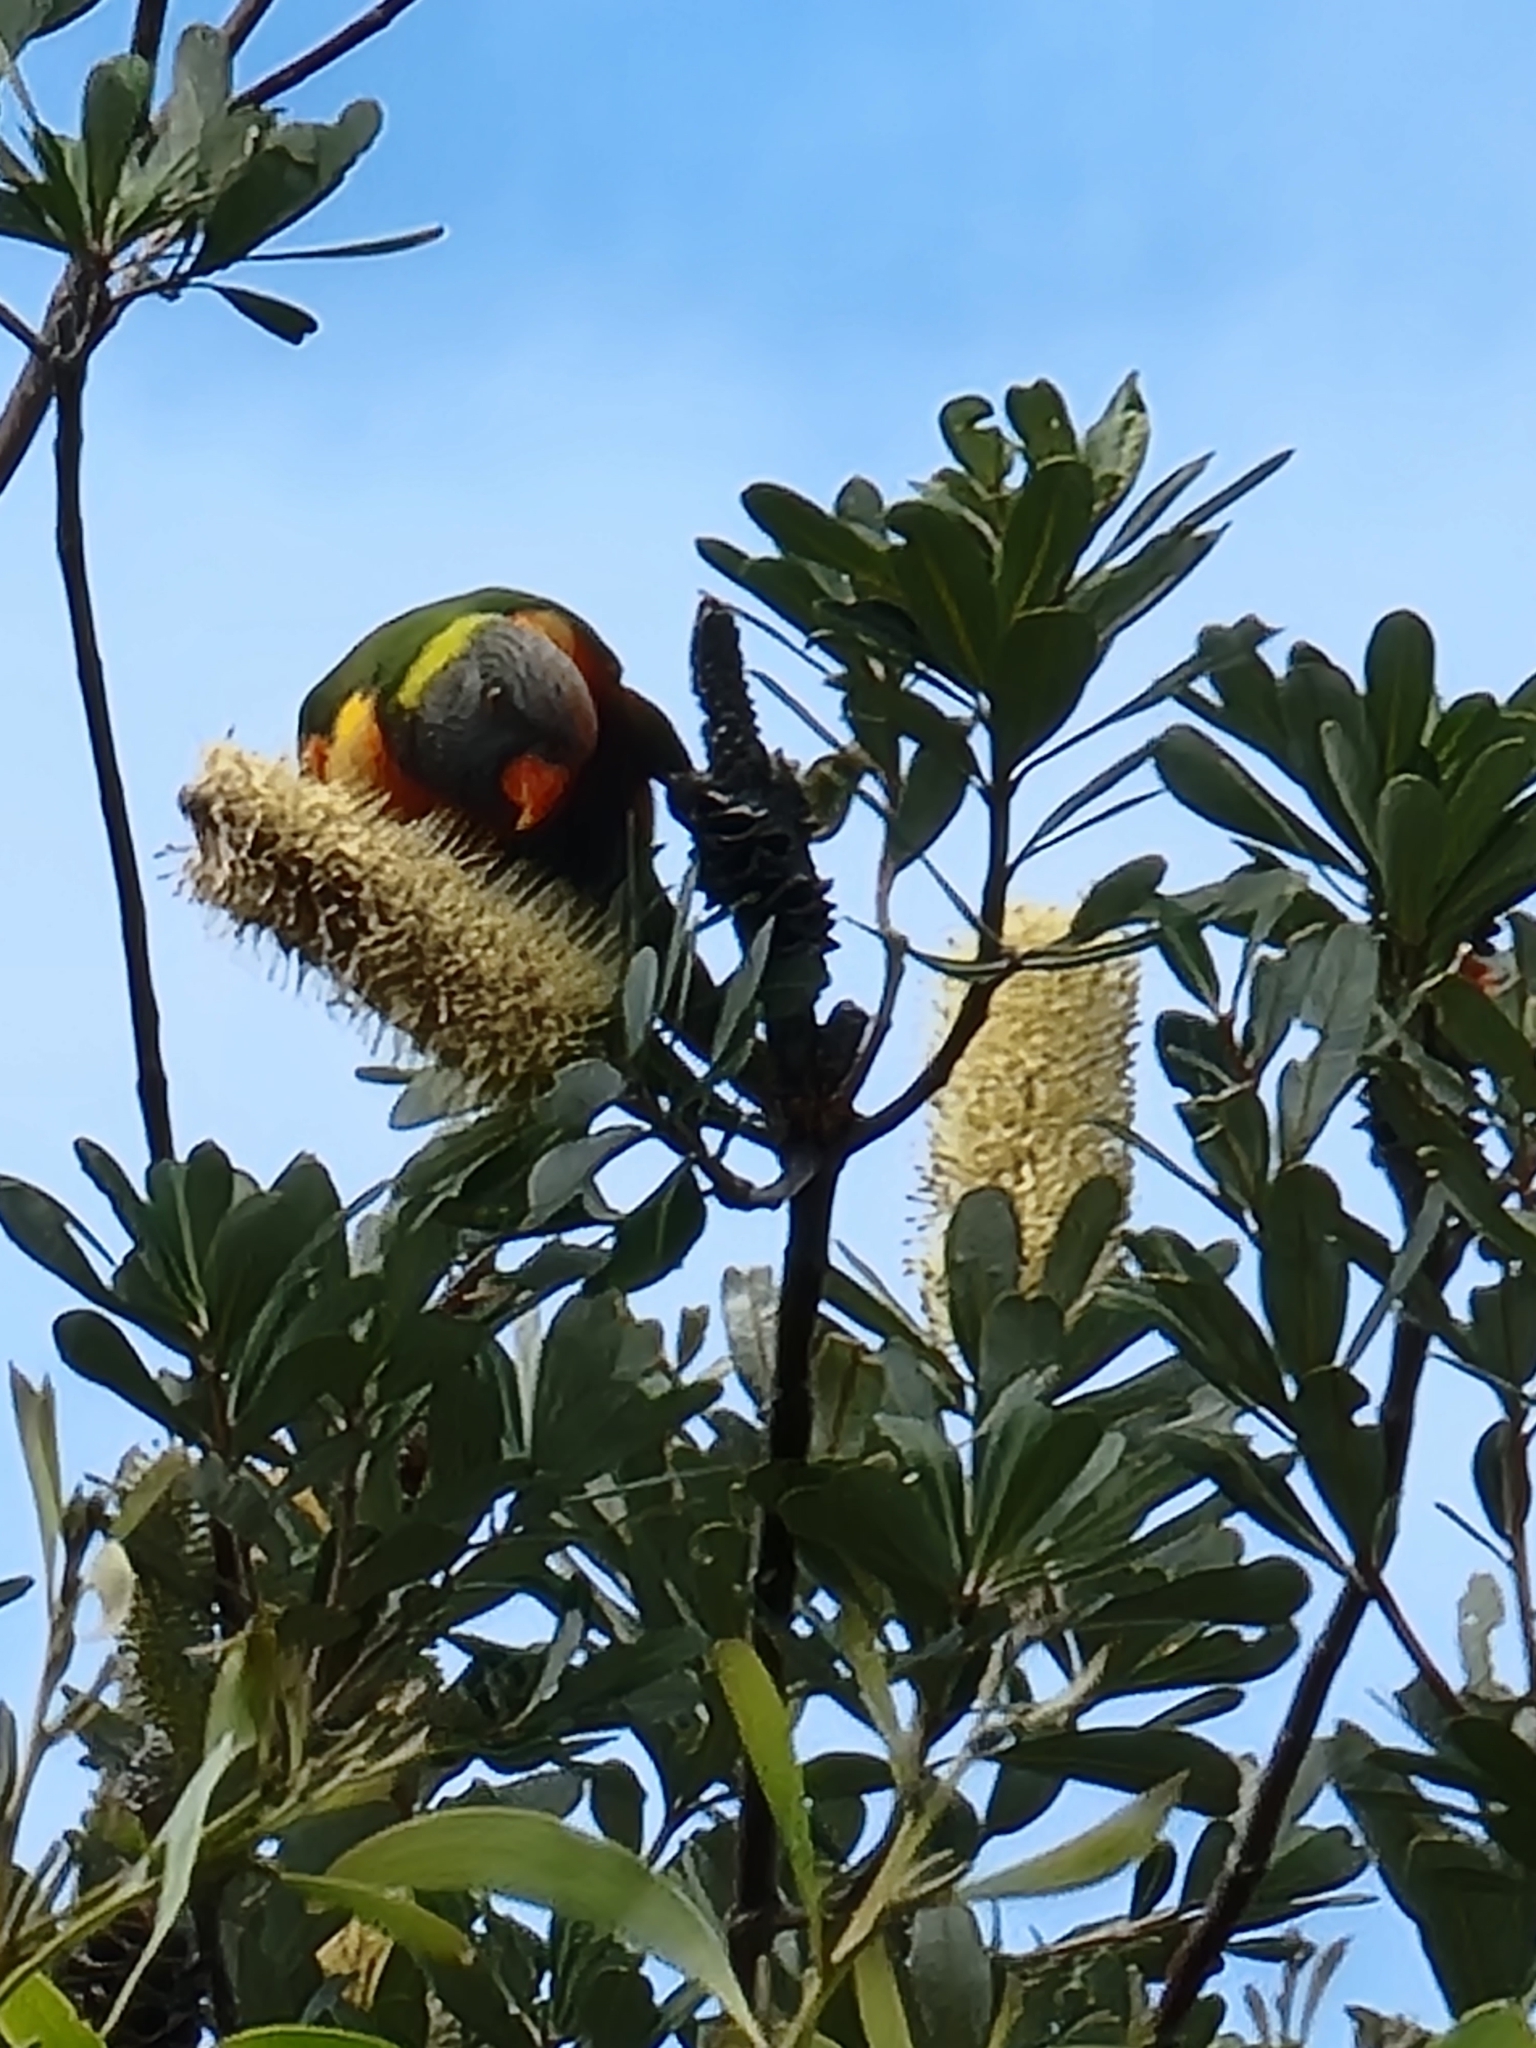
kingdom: Animalia
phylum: Chordata
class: Aves
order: Psittaciformes
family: Psittacidae
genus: Trichoglossus
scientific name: Trichoglossus haematodus
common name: Coconut lorikeet
